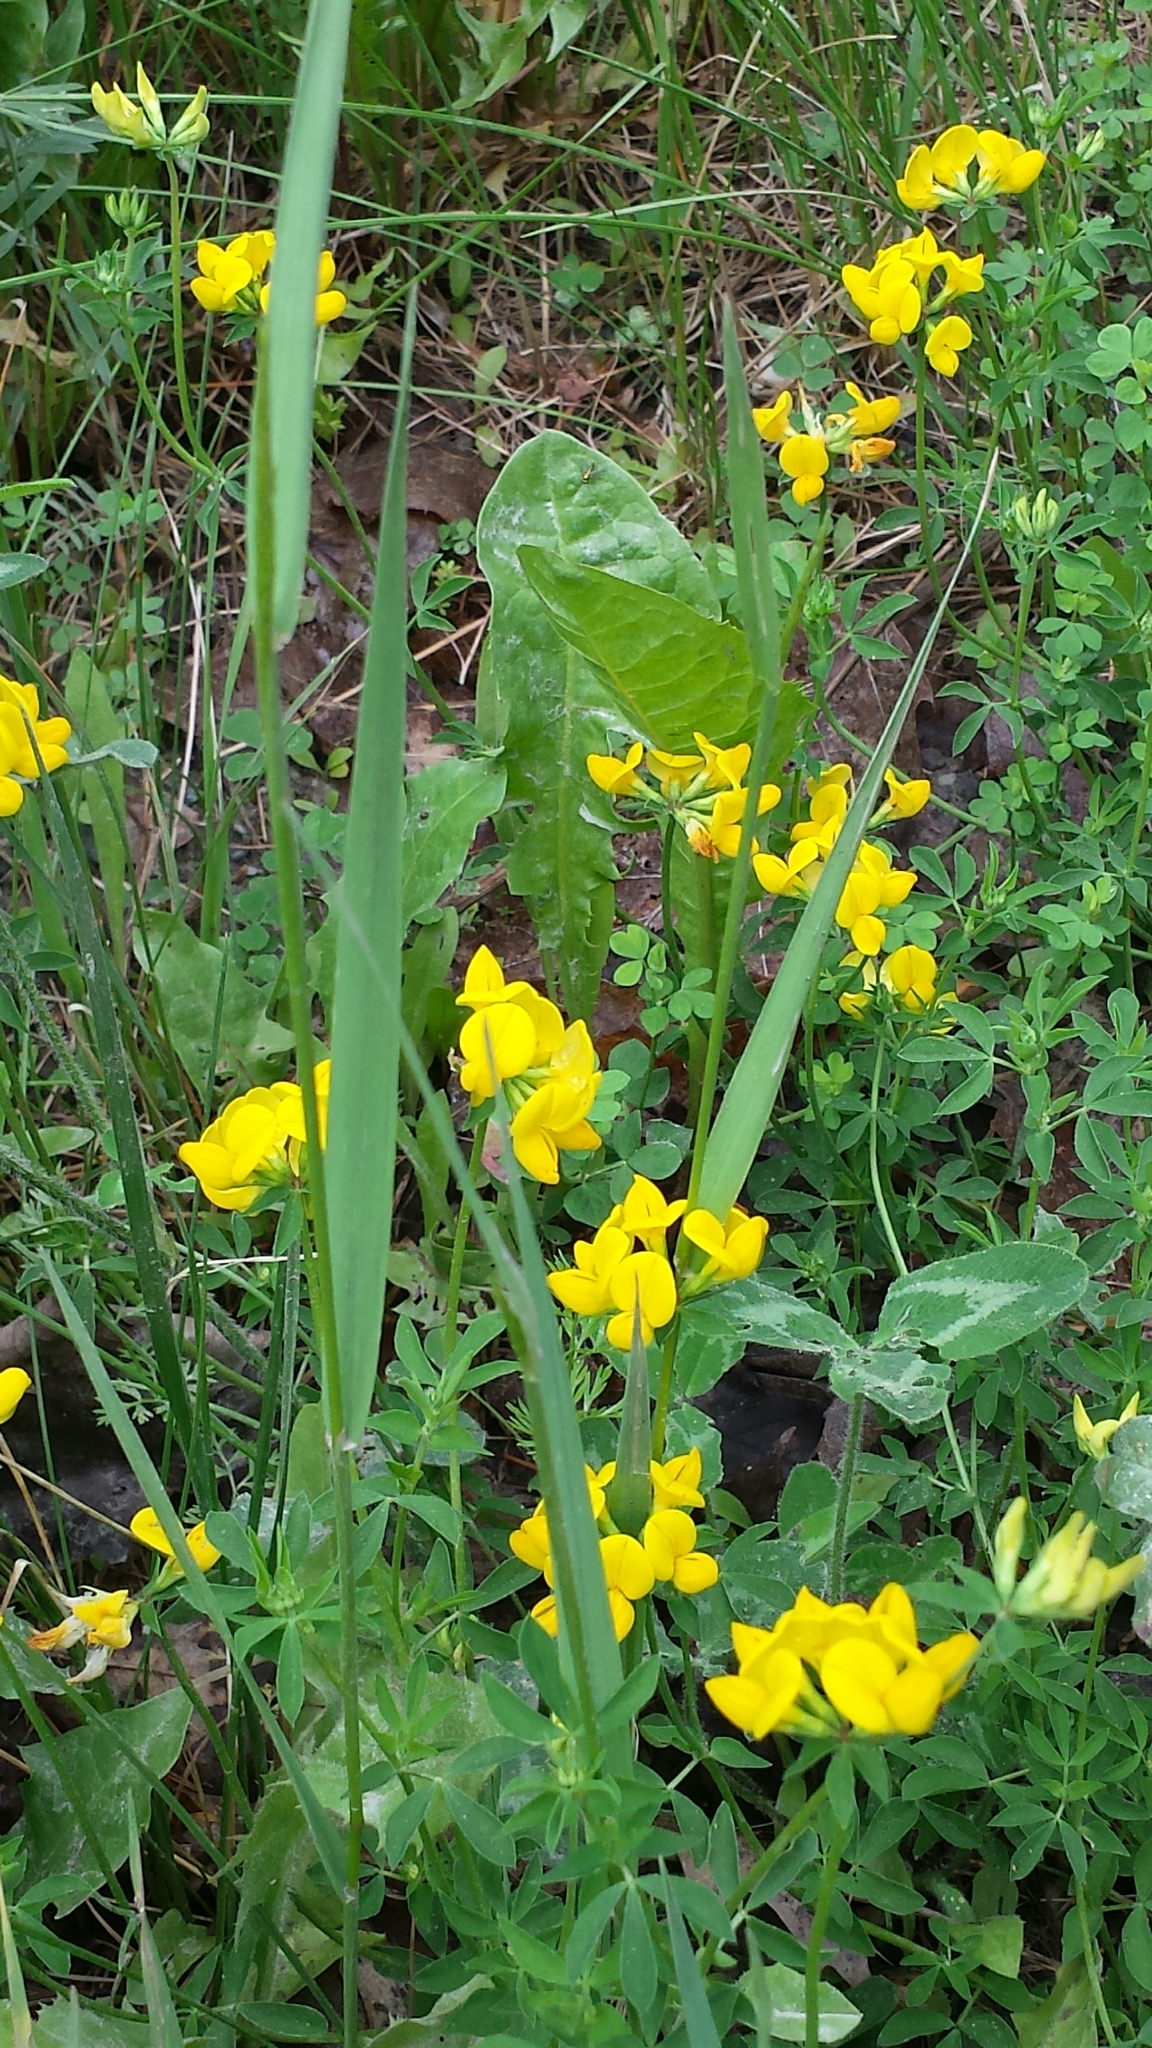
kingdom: Plantae
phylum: Tracheophyta
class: Magnoliopsida
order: Fabales
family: Fabaceae
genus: Lotus
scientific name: Lotus corniculatus
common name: Common bird's-foot-trefoil
